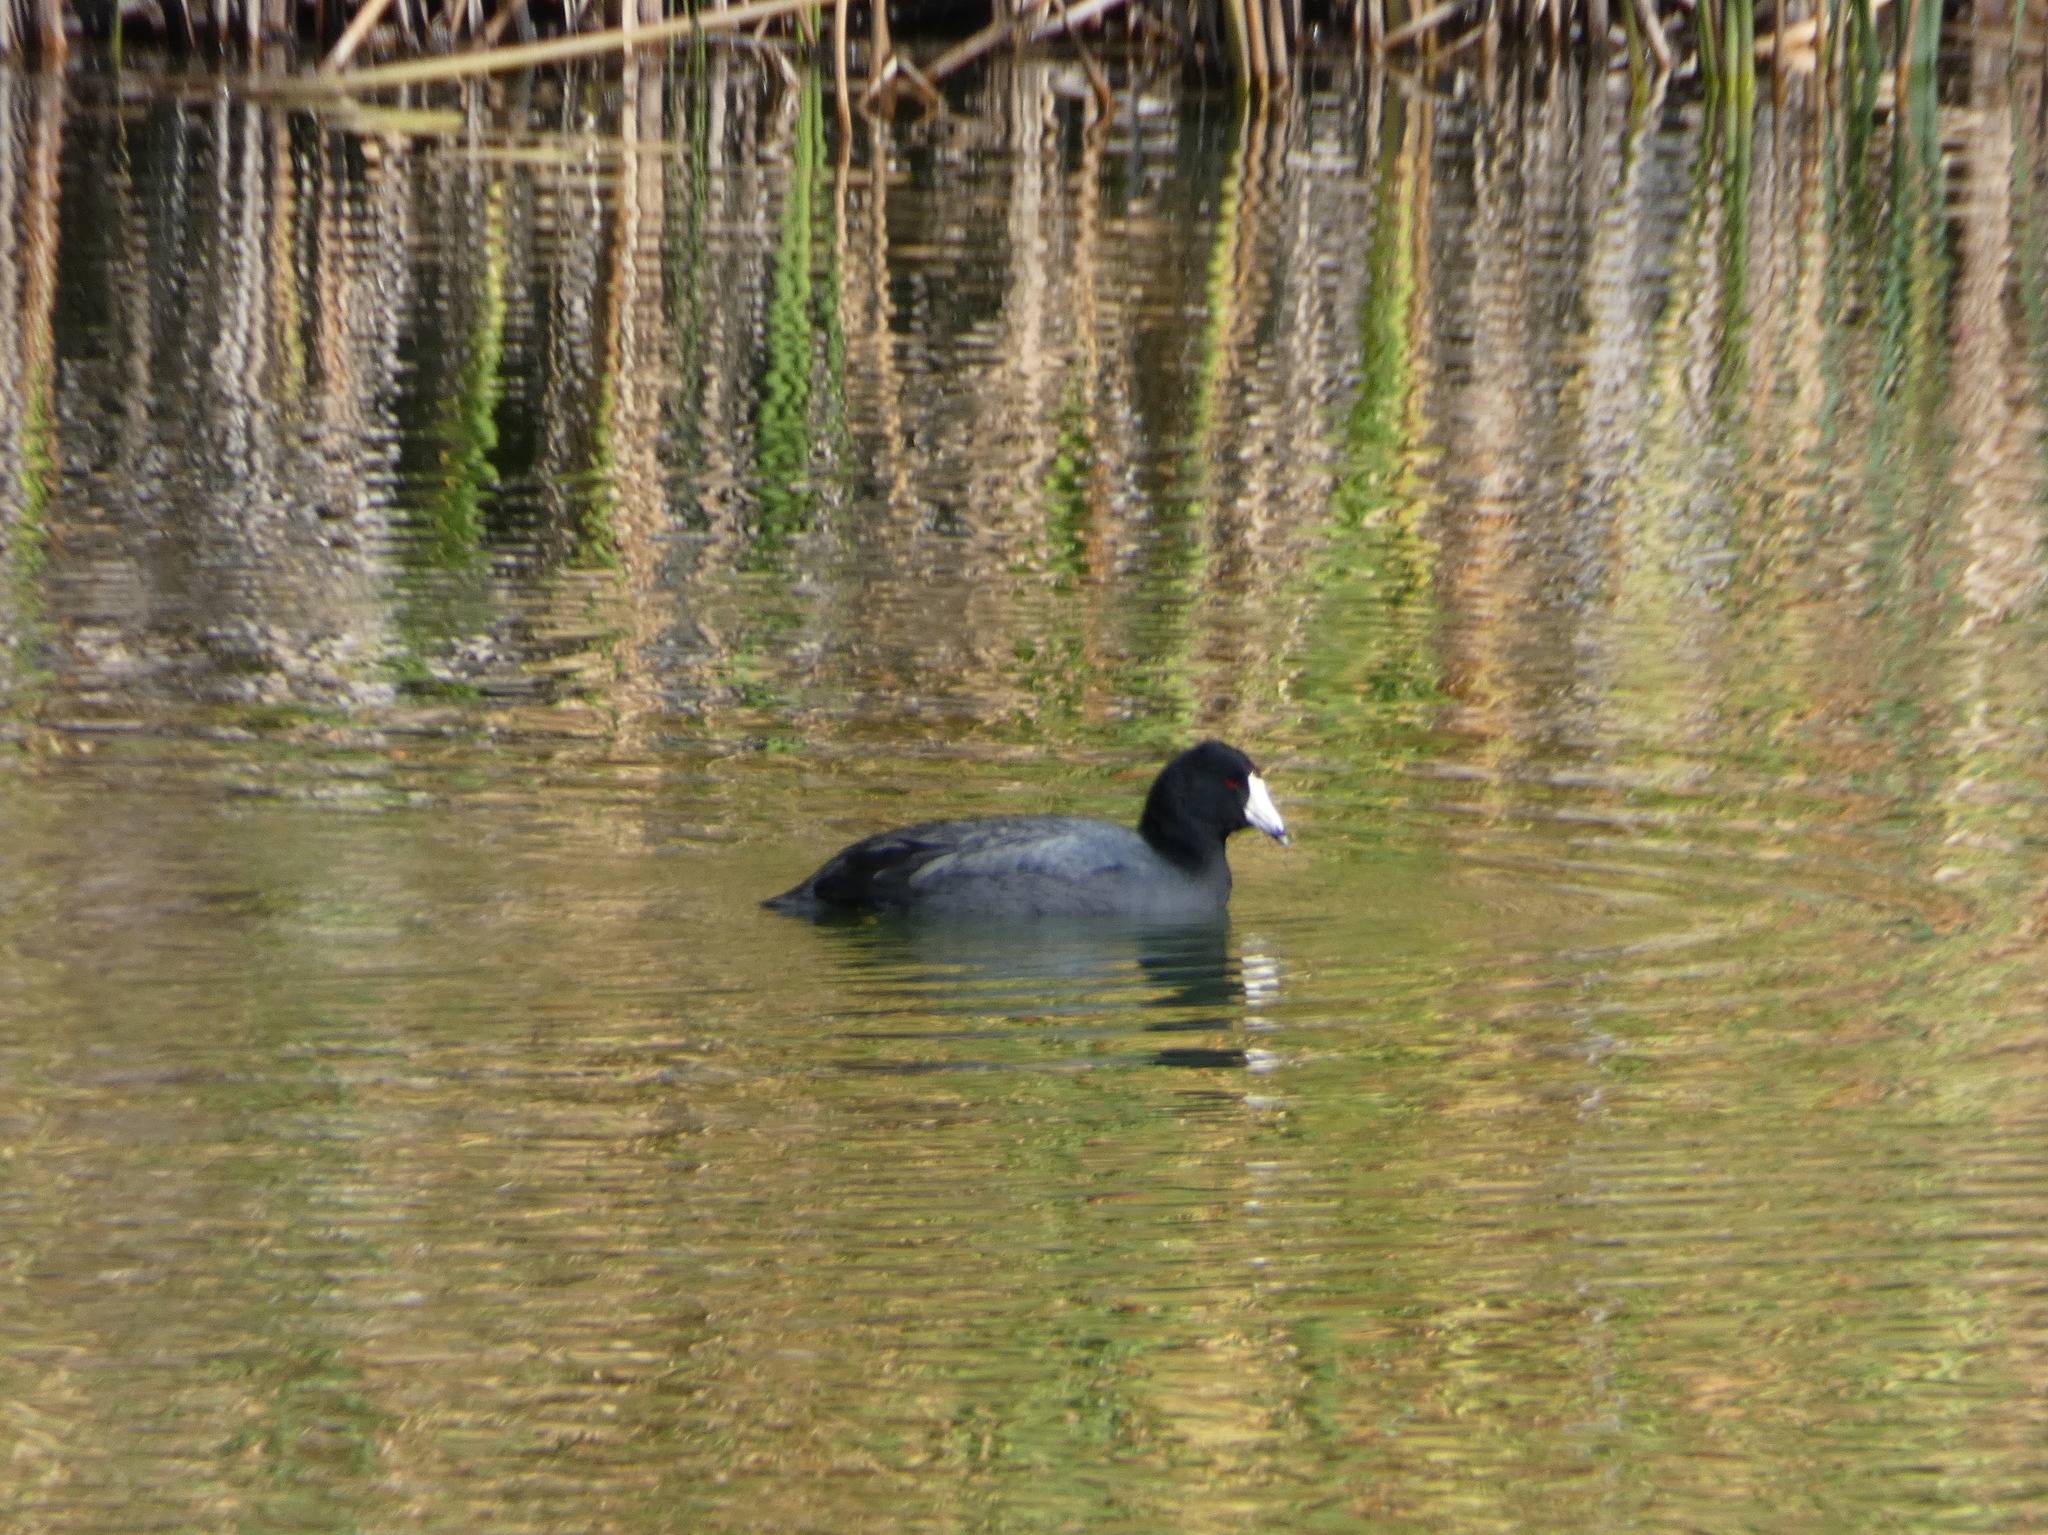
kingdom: Animalia
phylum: Chordata
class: Aves
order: Gruiformes
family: Rallidae
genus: Fulica
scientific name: Fulica americana
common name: American coot
